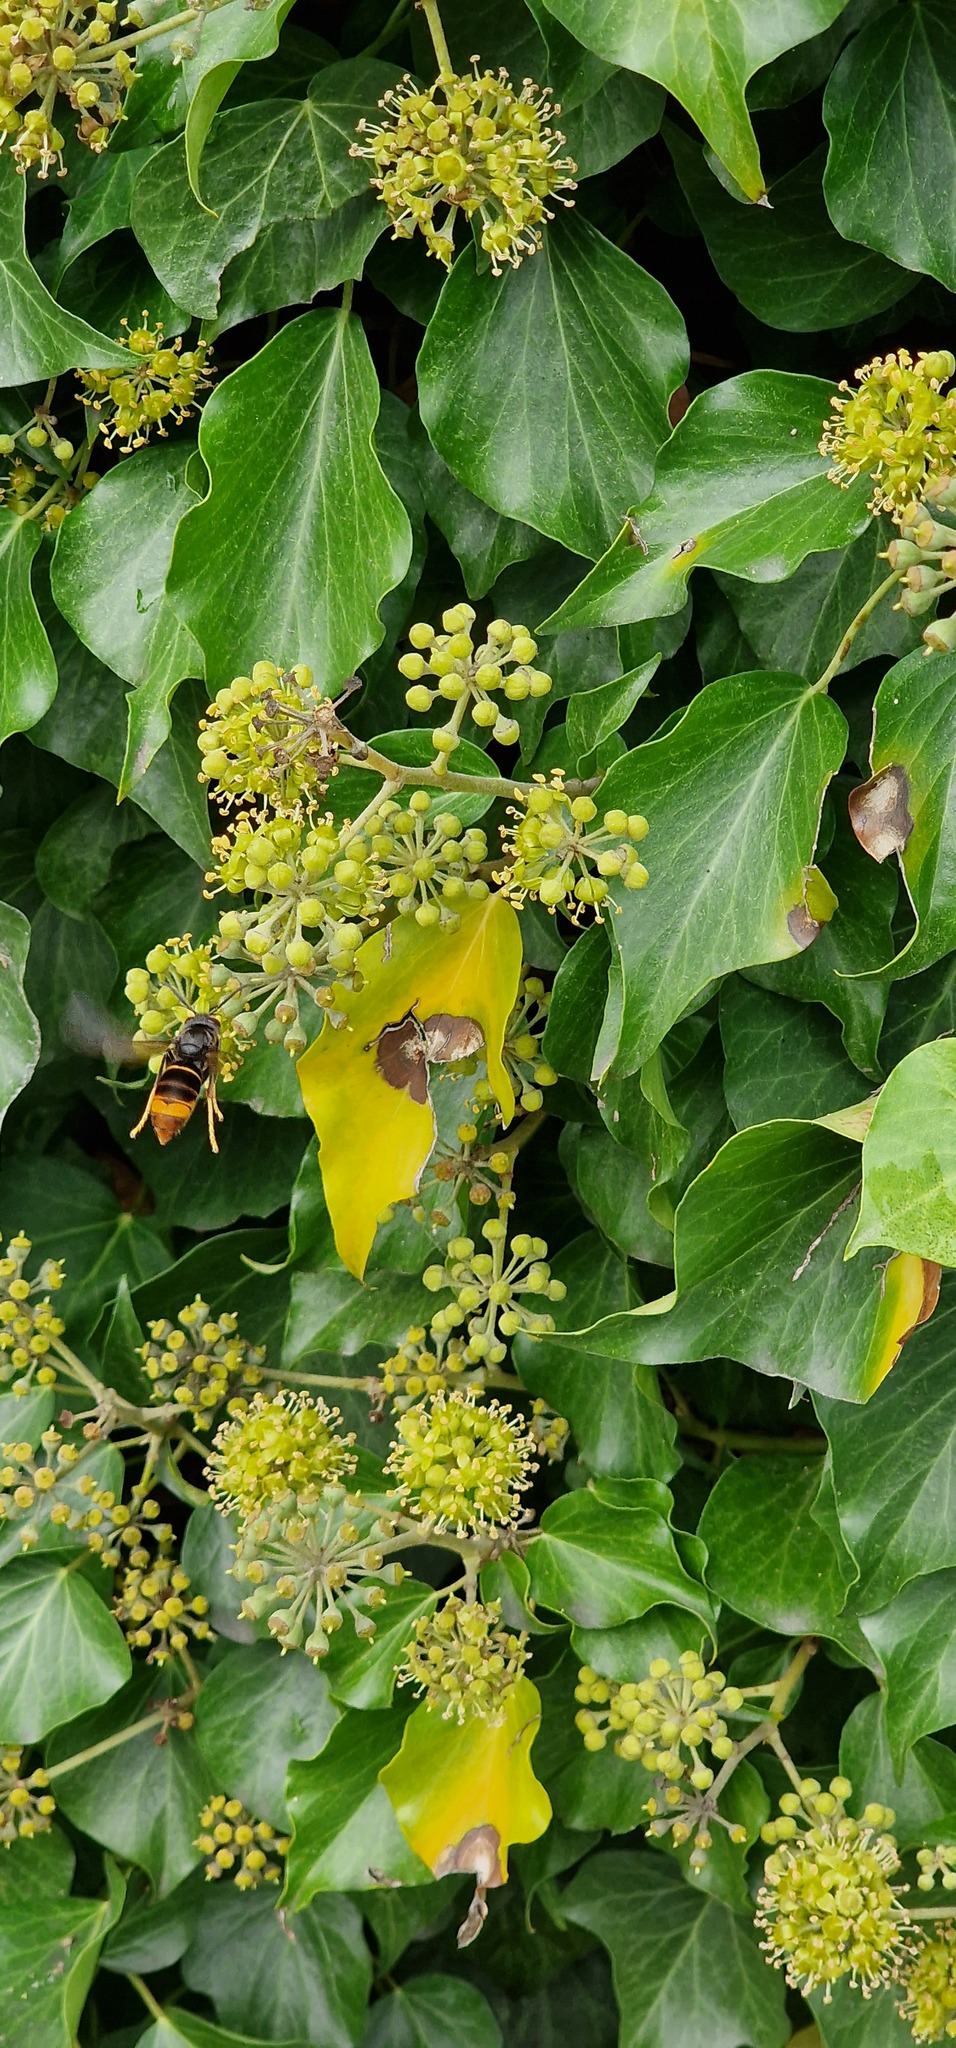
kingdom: Animalia
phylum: Arthropoda
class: Insecta
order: Hymenoptera
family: Vespidae
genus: Vespa
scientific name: Vespa velutina
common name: Asian hornet
